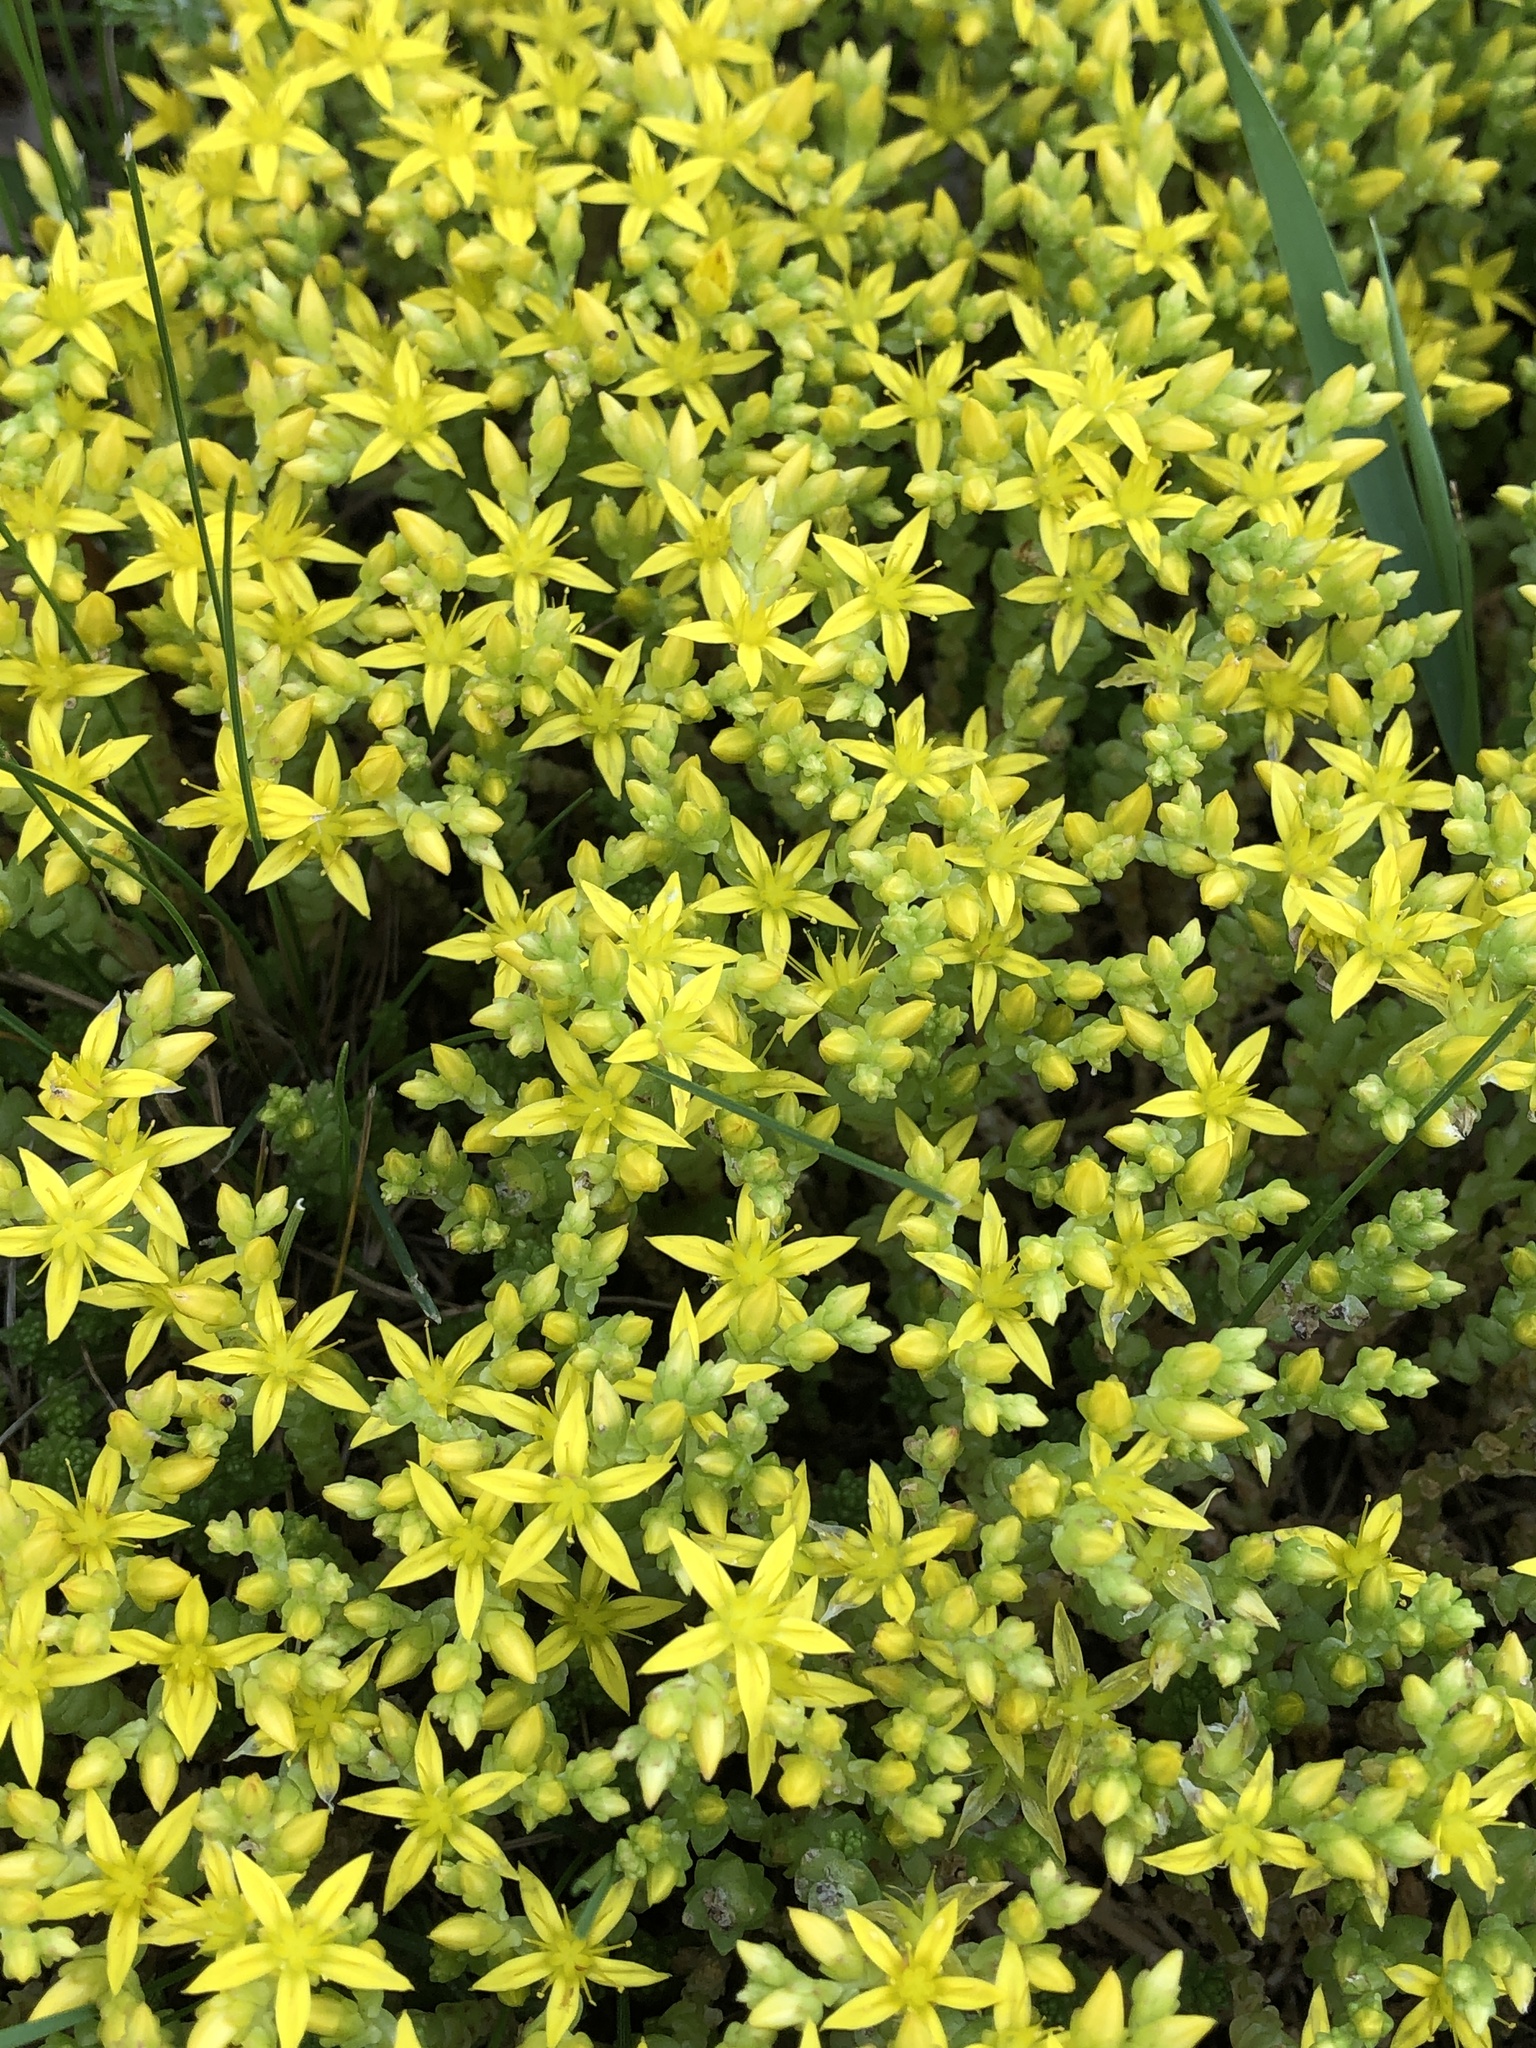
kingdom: Plantae
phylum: Tracheophyta
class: Magnoliopsida
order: Saxifragales
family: Crassulaceae
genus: Sedum
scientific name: Sedum acre
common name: Biting stonecrop
